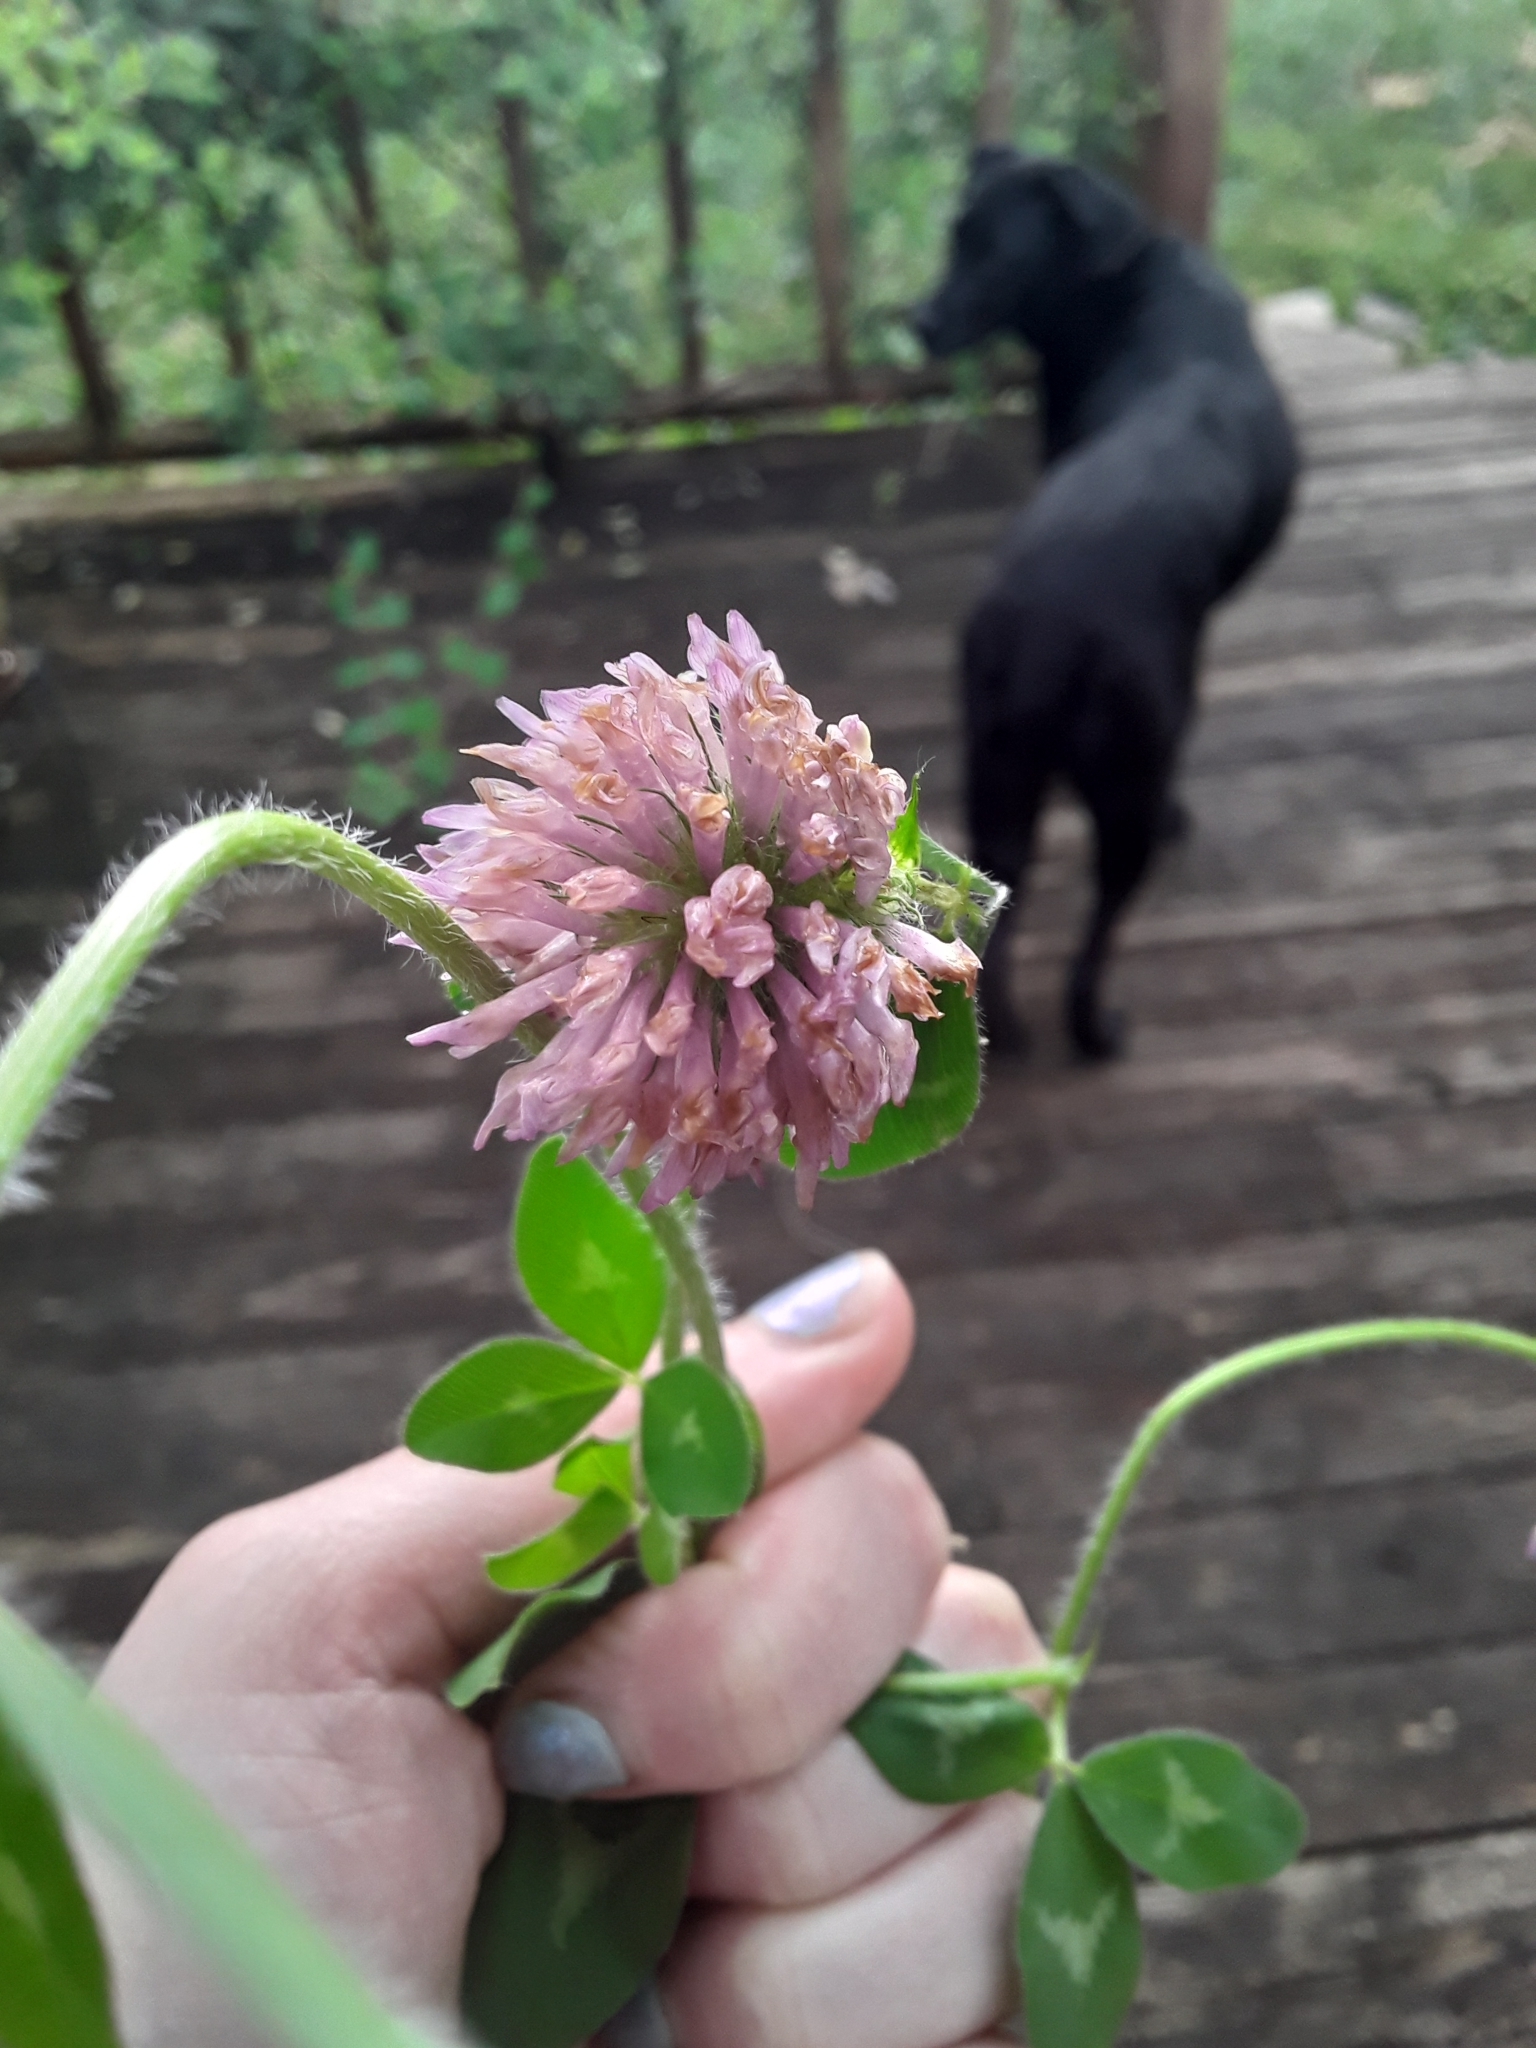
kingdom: Plantae
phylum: Tracheophyta
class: Magnoliopsida
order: Fabales
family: Fabaceae
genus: Trifolium
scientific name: Trifolium pratense
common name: Red clover
